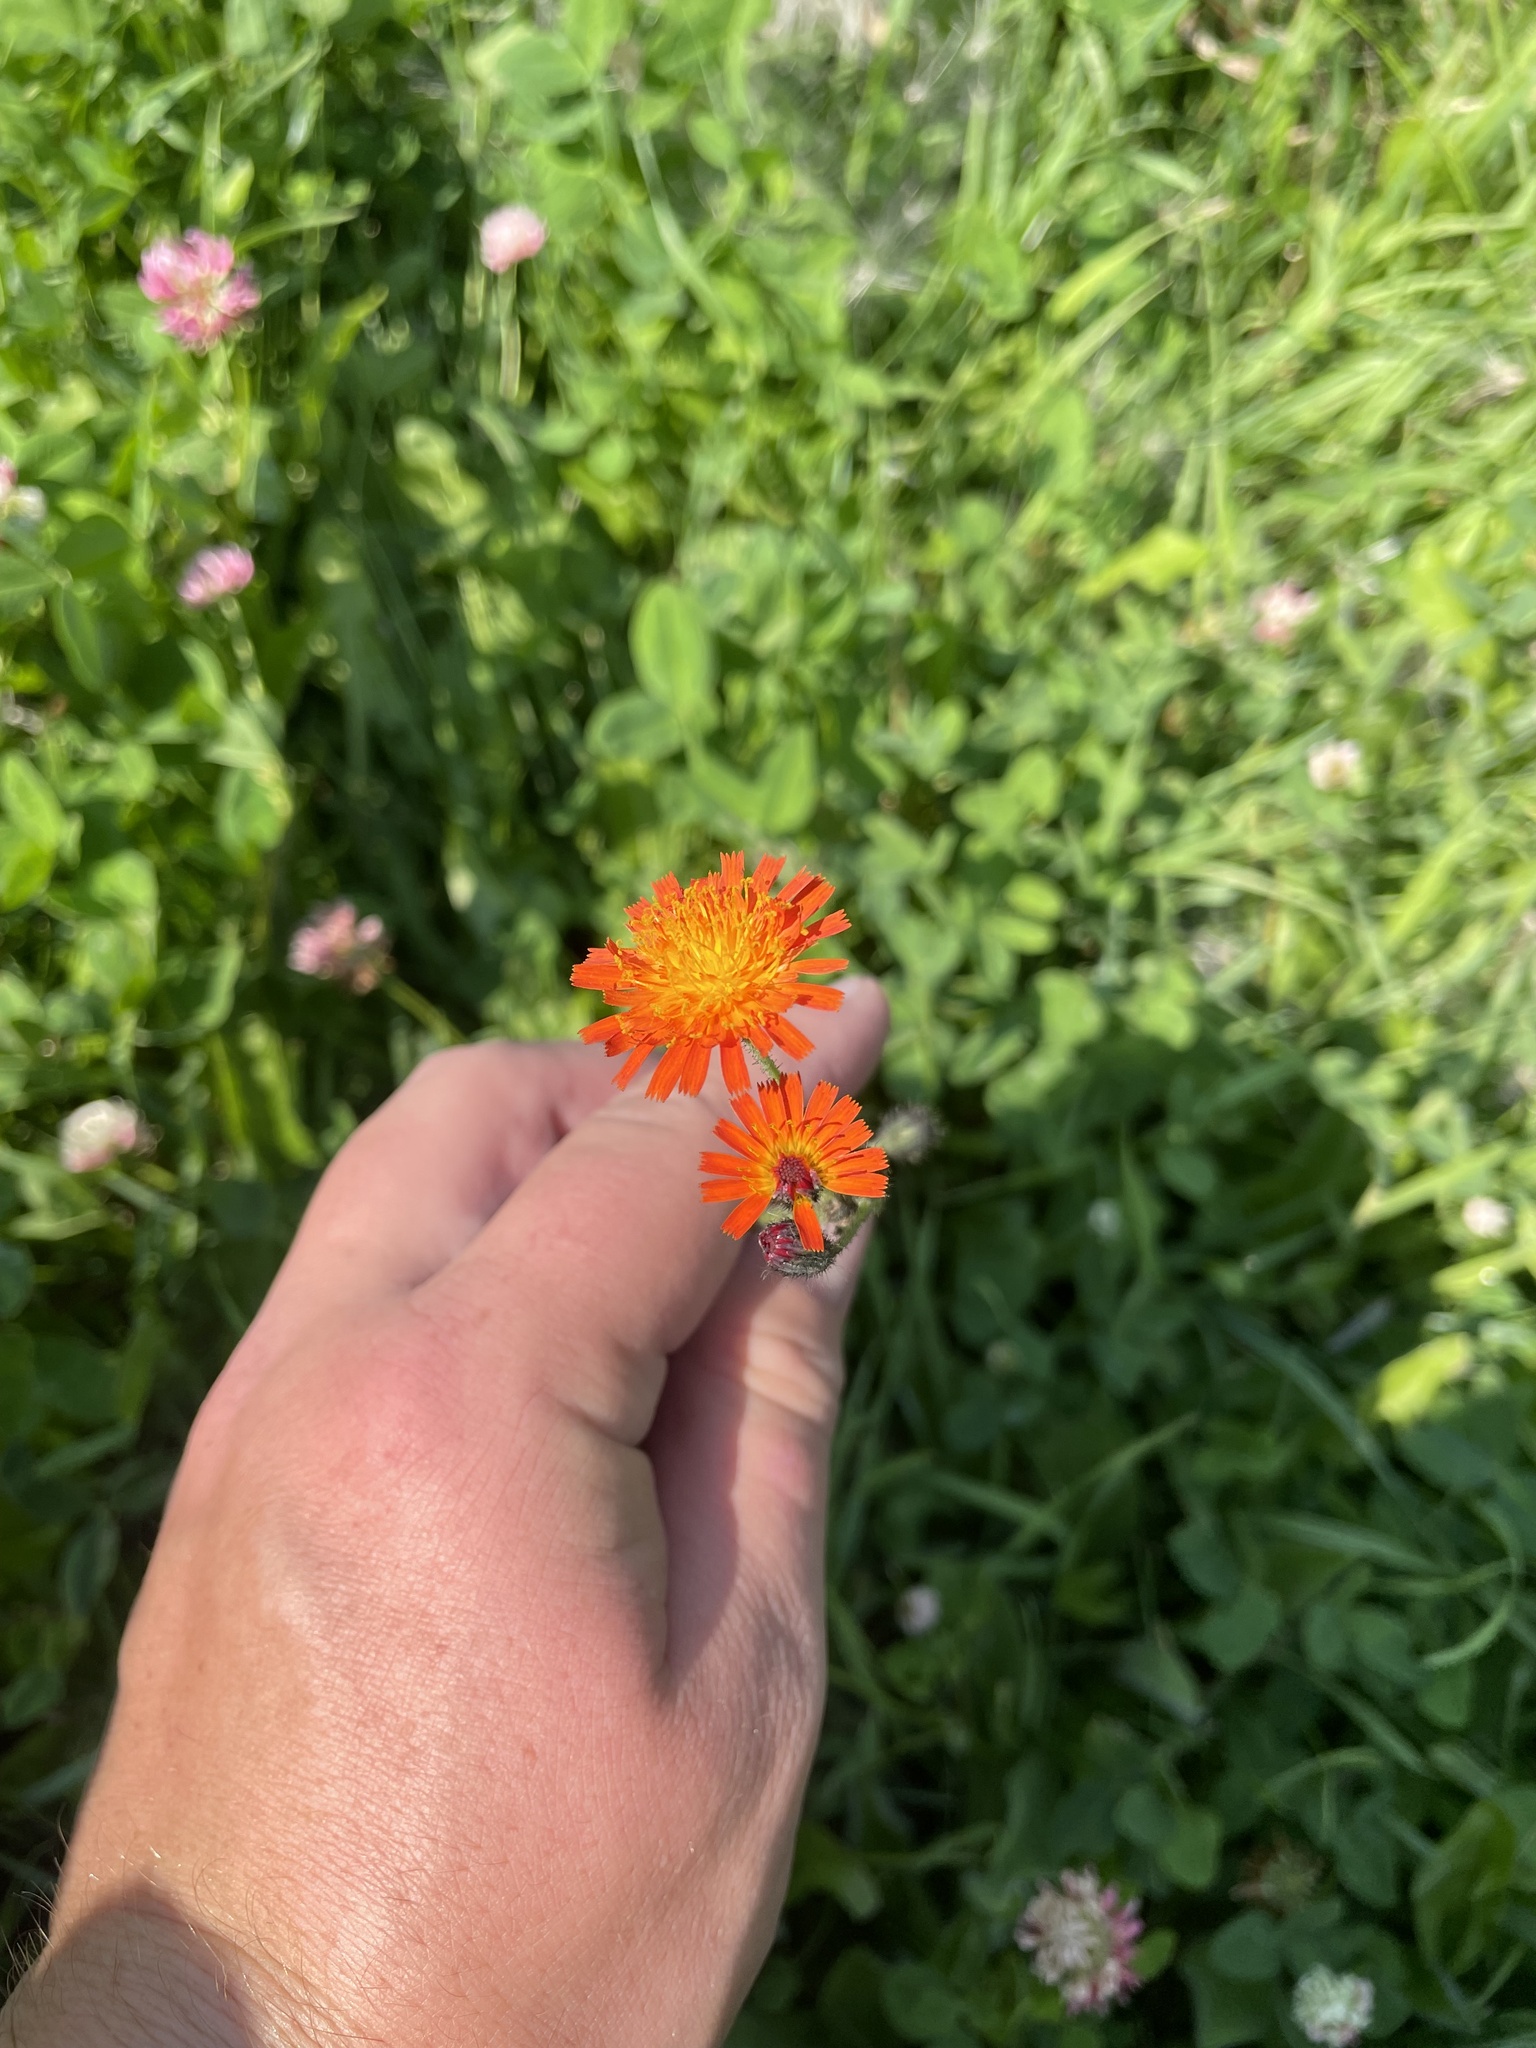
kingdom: Plantae
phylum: Tracheophyta
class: Magnoliopsida
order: Asterales
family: Asteraceae
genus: Pilosella
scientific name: Pilosella aurantiaca
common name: Fox-and-cubs
